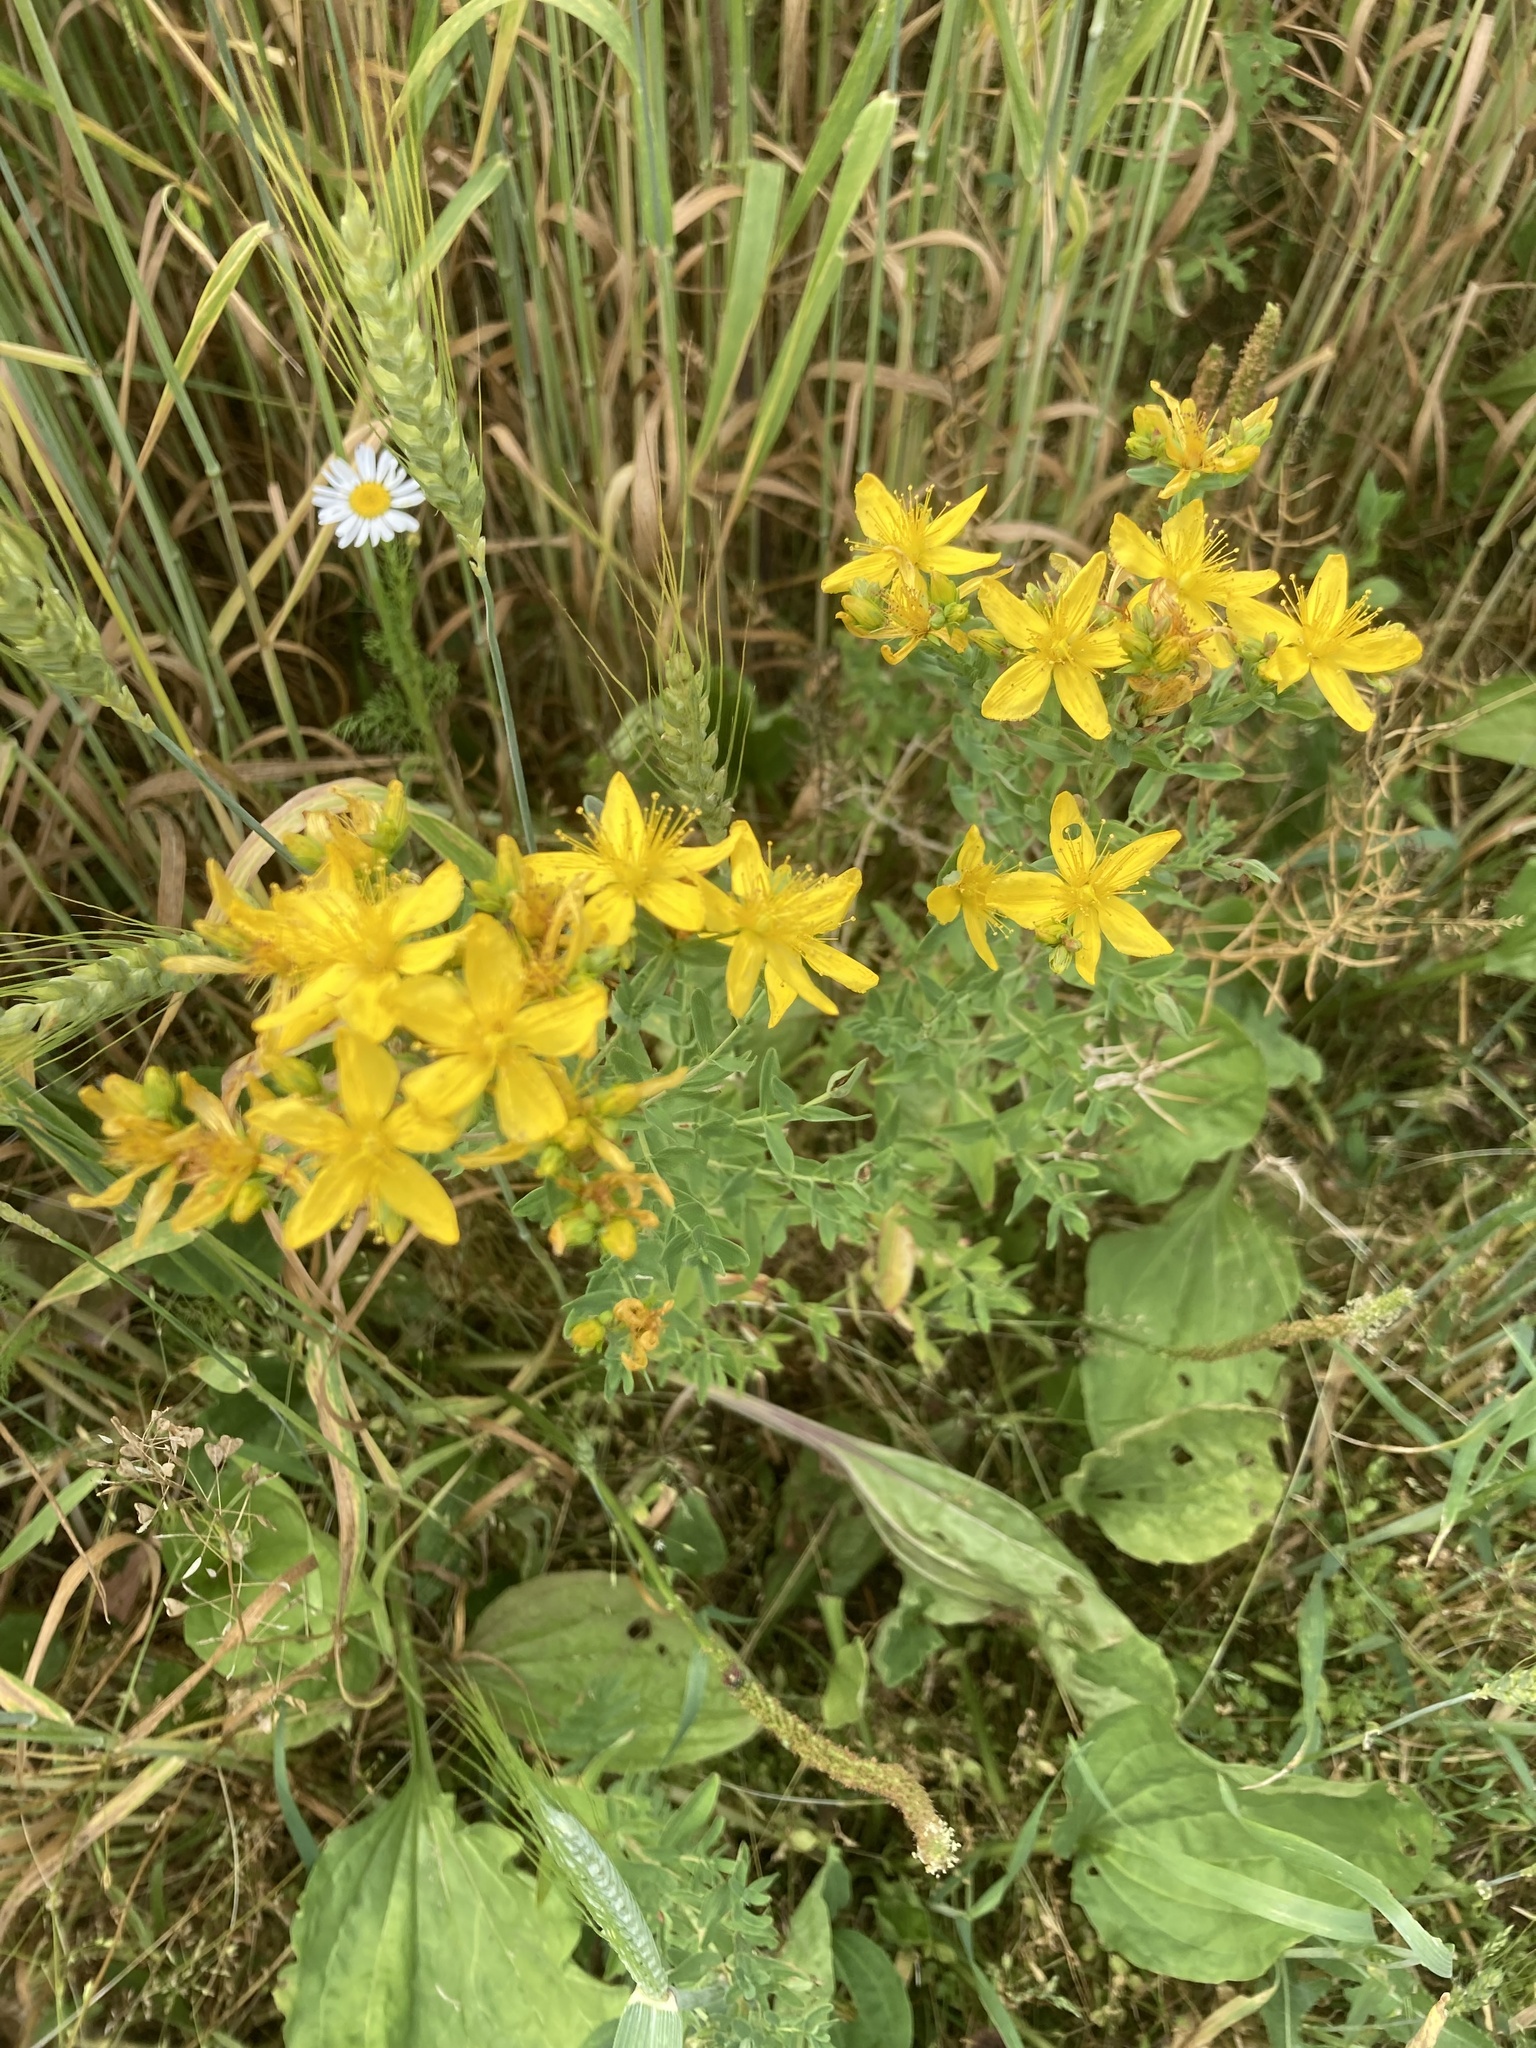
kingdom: Plantae
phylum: Tracheophyta
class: Magnoliopsida
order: Malpighiales
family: Hypericaceae
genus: Hypericum
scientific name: Hypericum perforatum
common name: Common st. johnswort
